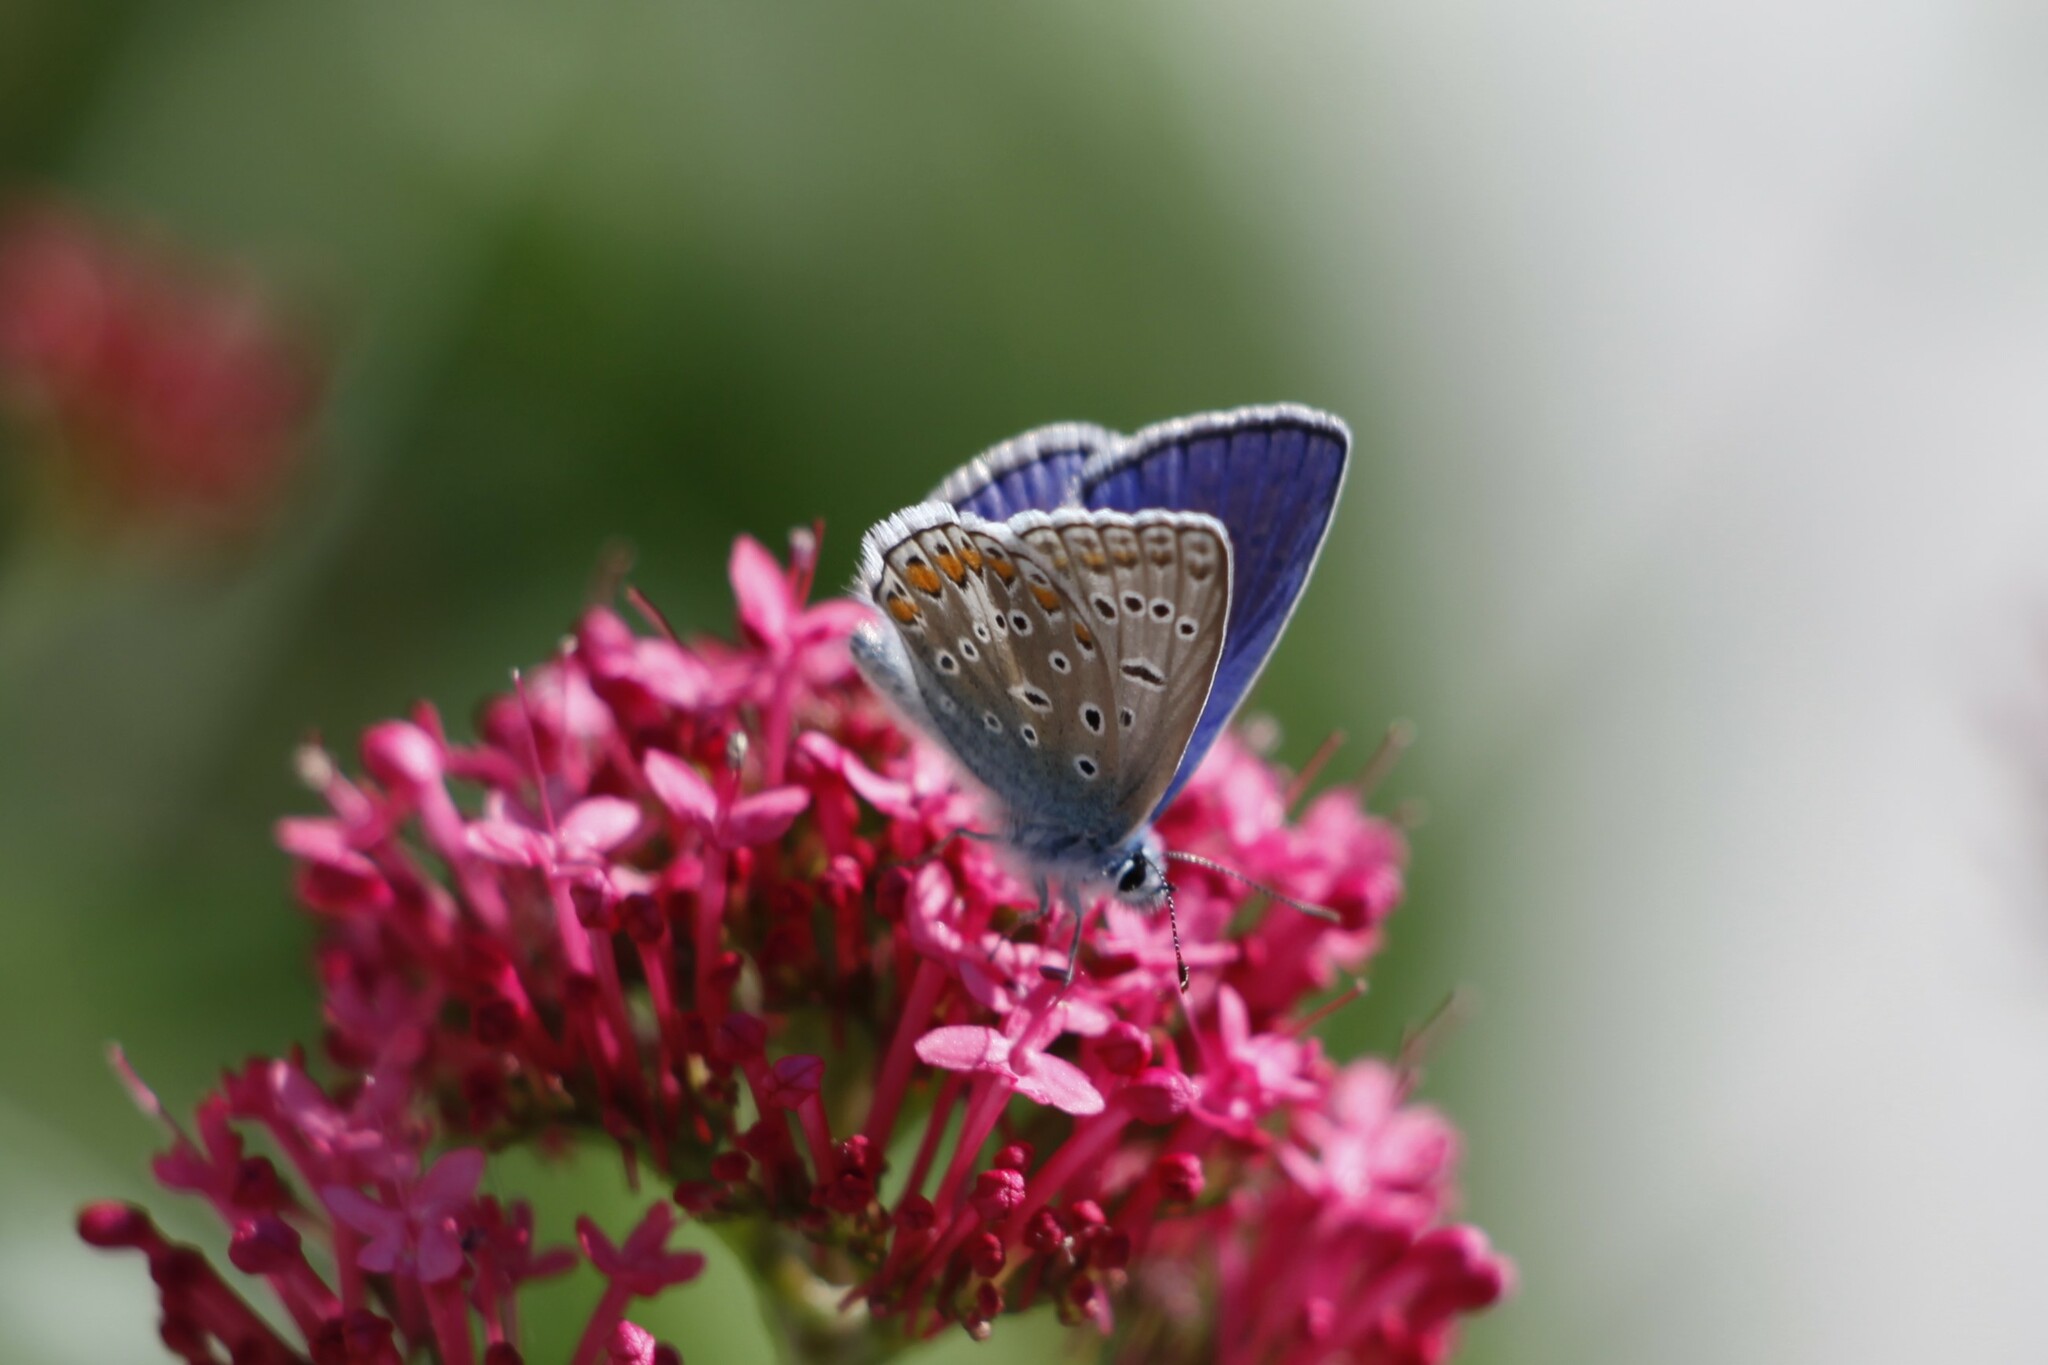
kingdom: Animalia
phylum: Arthropoda
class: Insecta
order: Lepidoptera
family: Lycaenidae
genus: Polyommatus
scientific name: Polyommatus icarus
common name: Common blue
